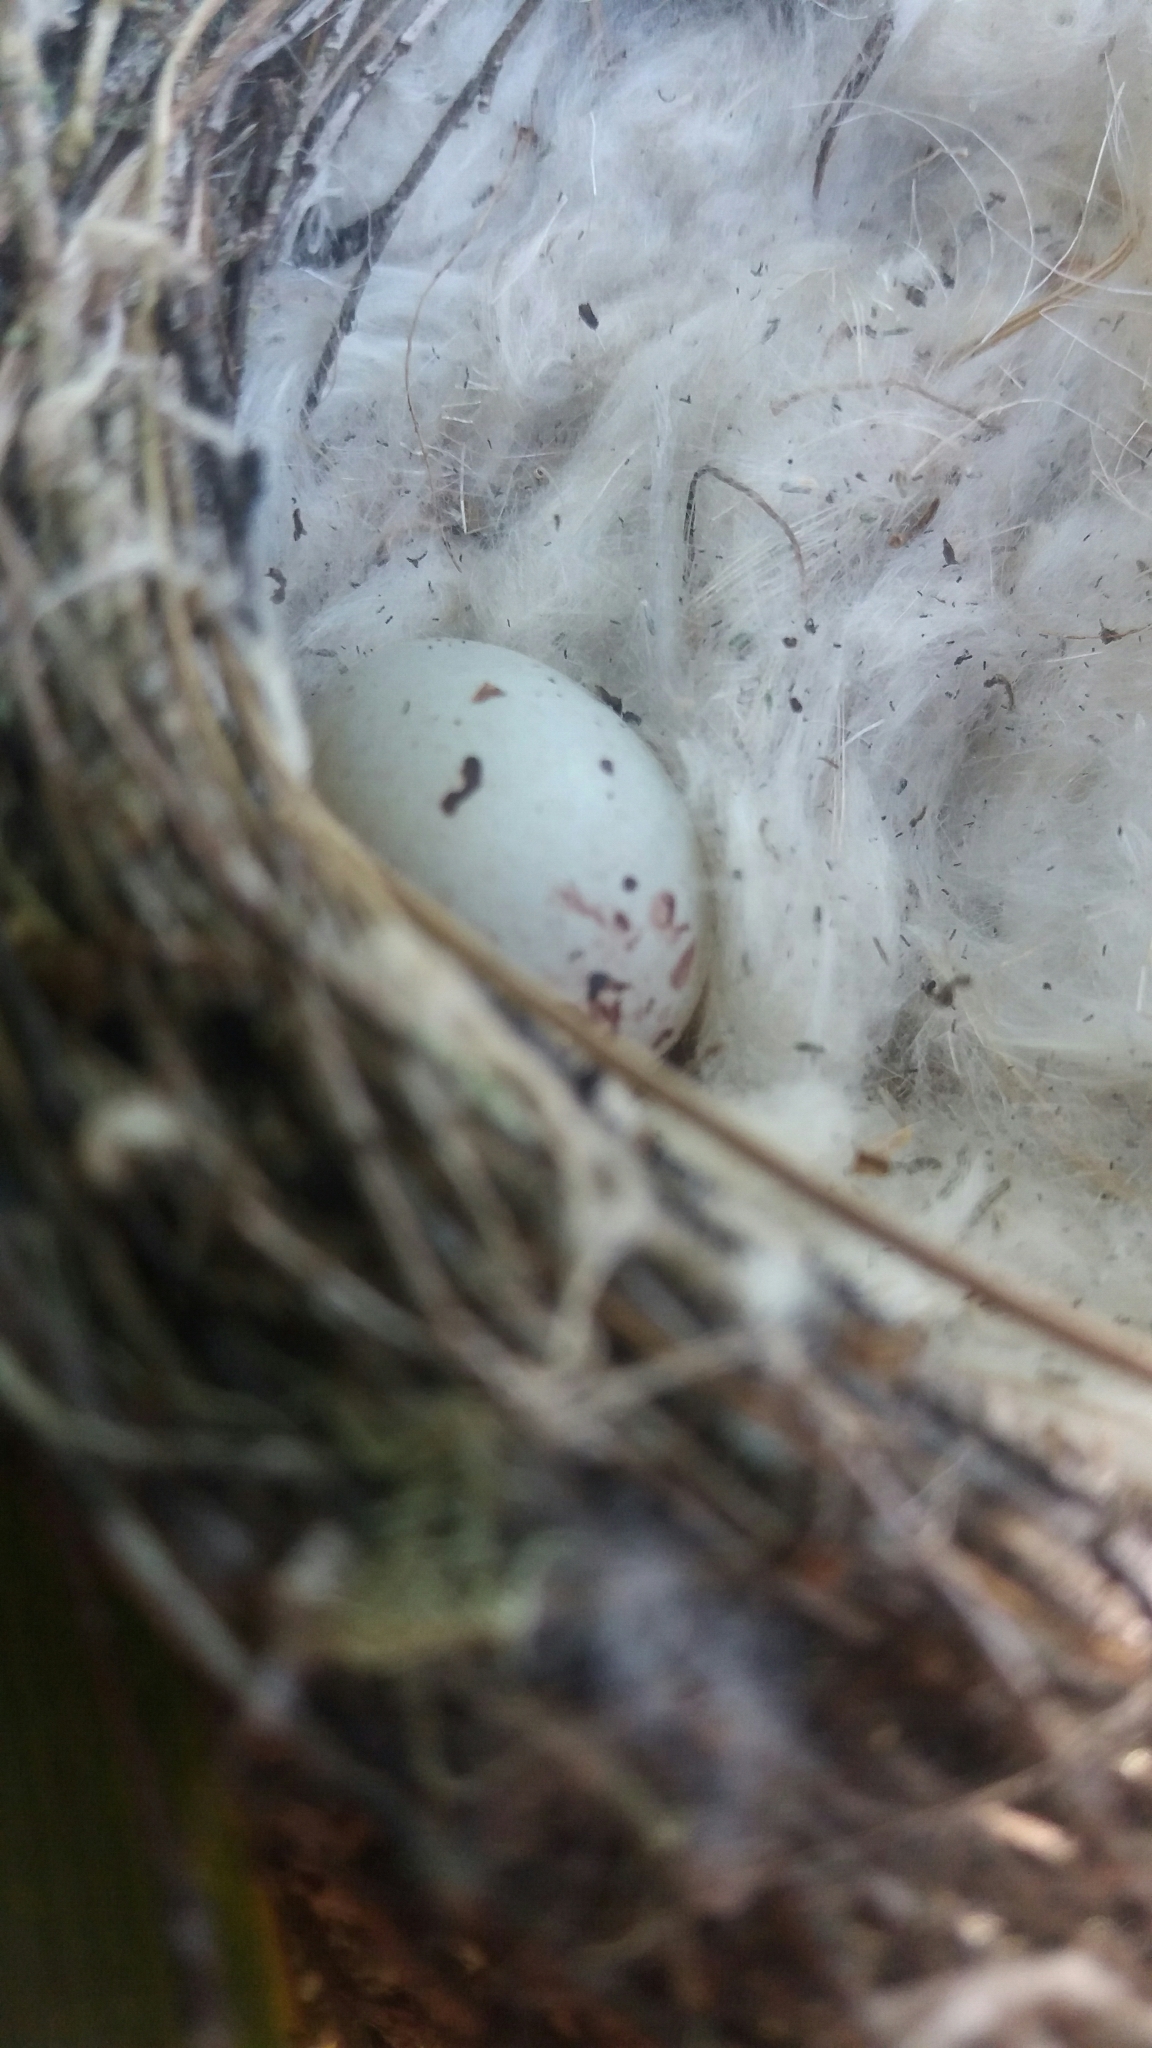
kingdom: Animalia
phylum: Chordata
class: Aves
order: Passeriformes
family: Fringillidae
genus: Carduelis
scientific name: Carduelis carduelis
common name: European goldfinch
